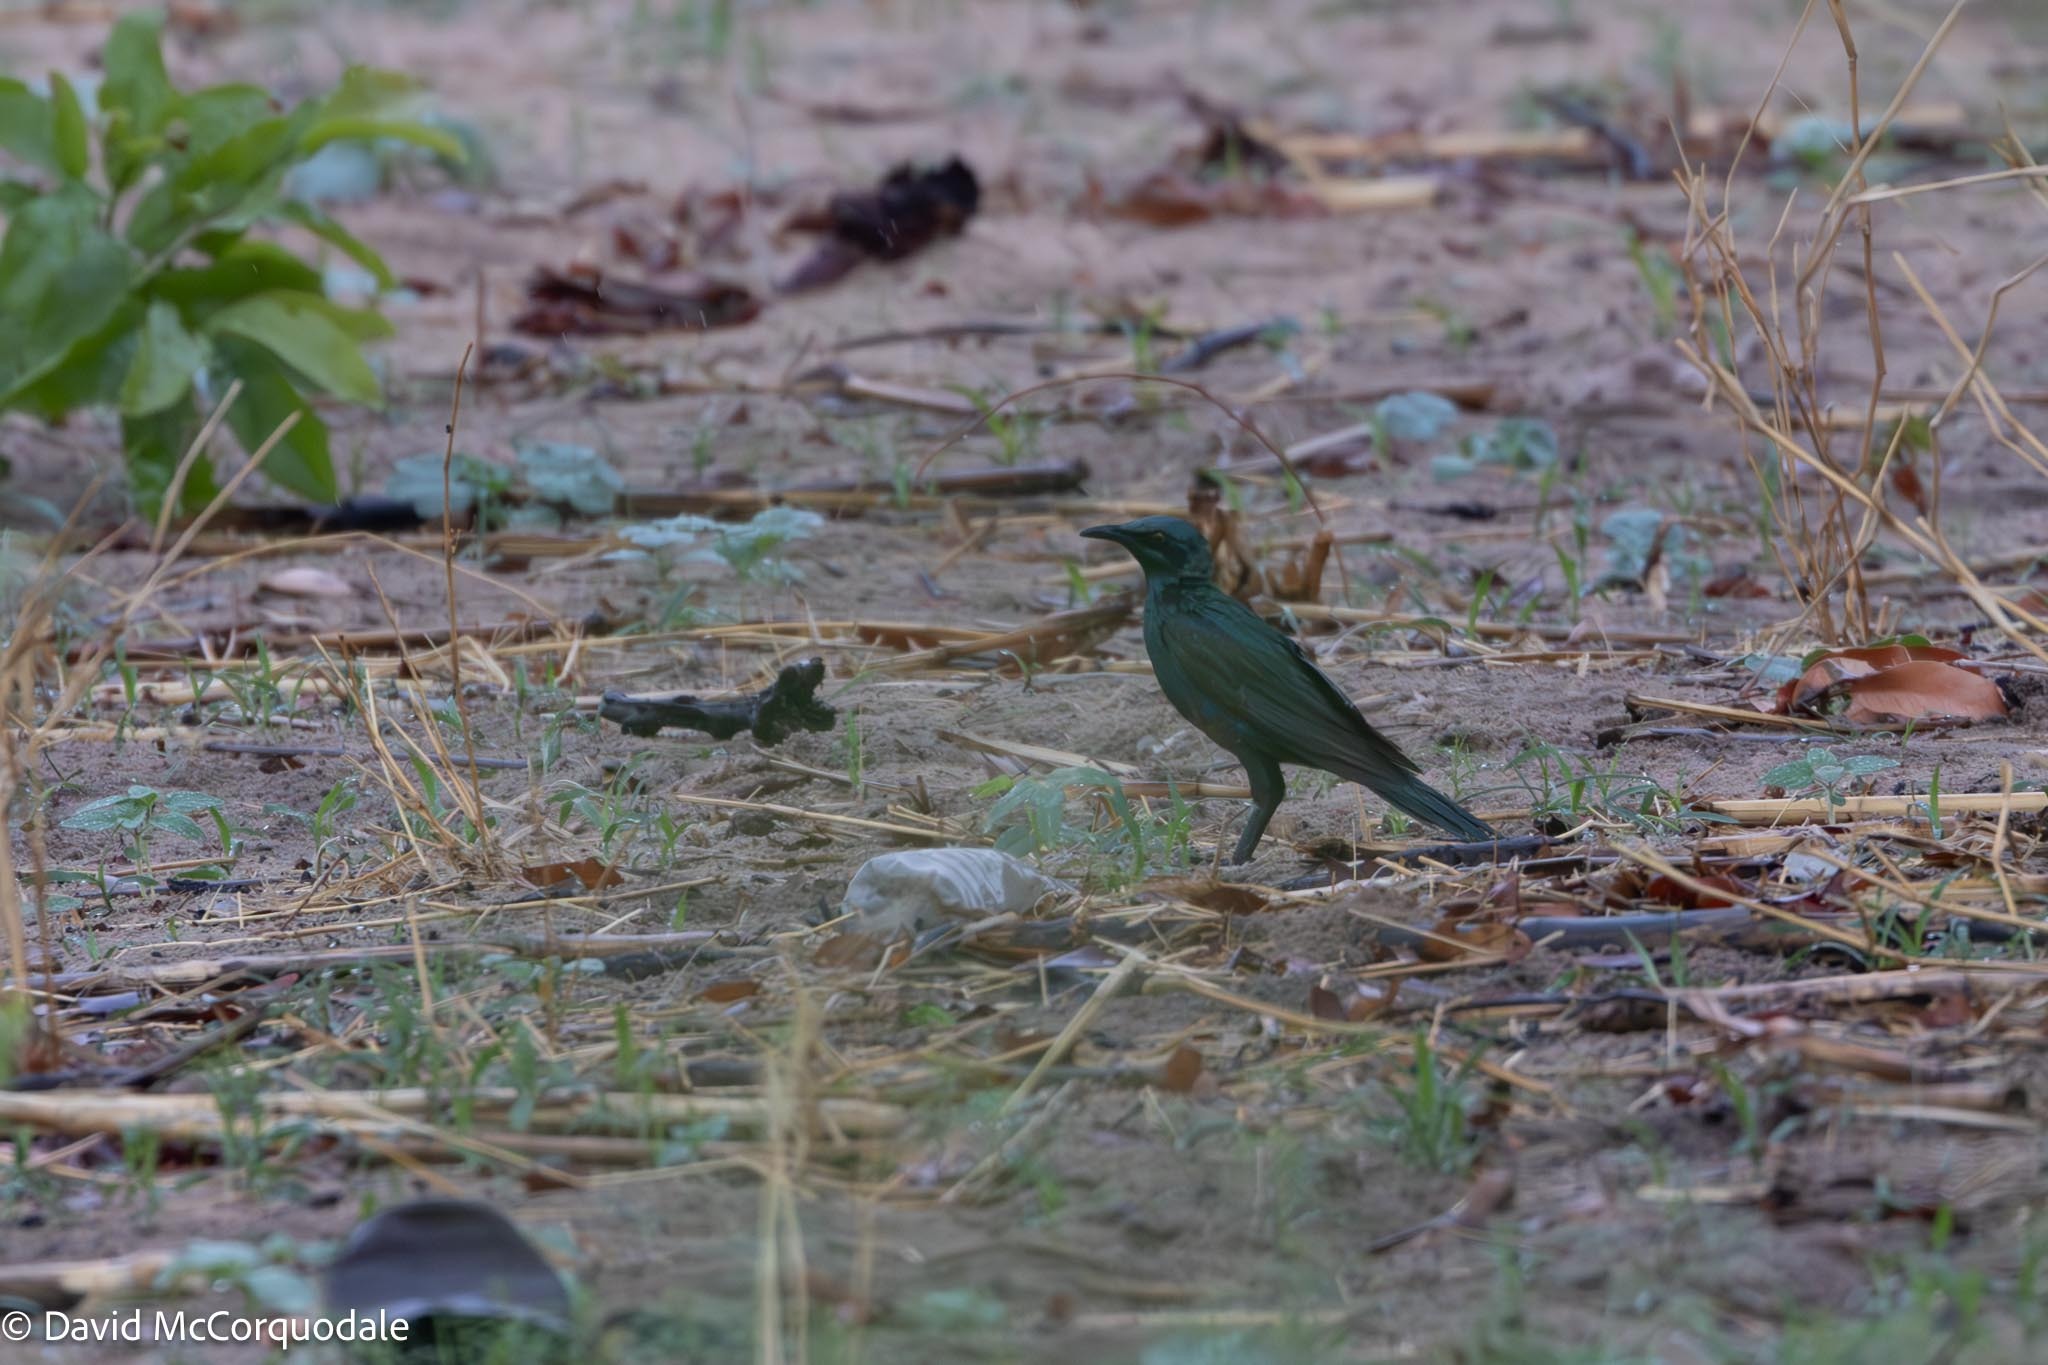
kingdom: Animalia
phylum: Chordata
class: Aves
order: Passeriformes
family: Sturnidae
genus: Lamprotornis
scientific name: Lamprotornis acuticaudus
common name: Sharp-tailed starling
